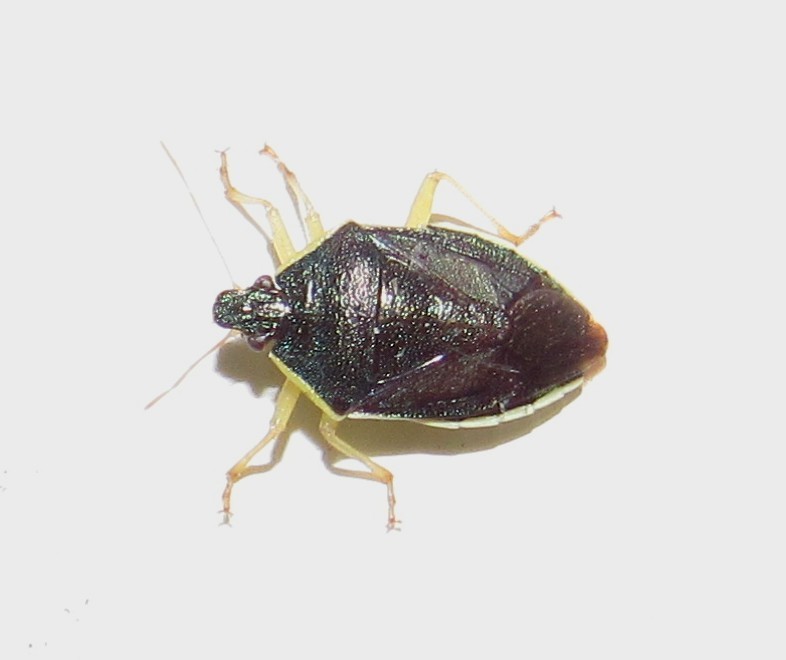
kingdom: Animalia
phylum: Arthropoda
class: Insecta
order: Hemiptera
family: Pentatomidae
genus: Tynacantha
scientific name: Tynacantha marginata
